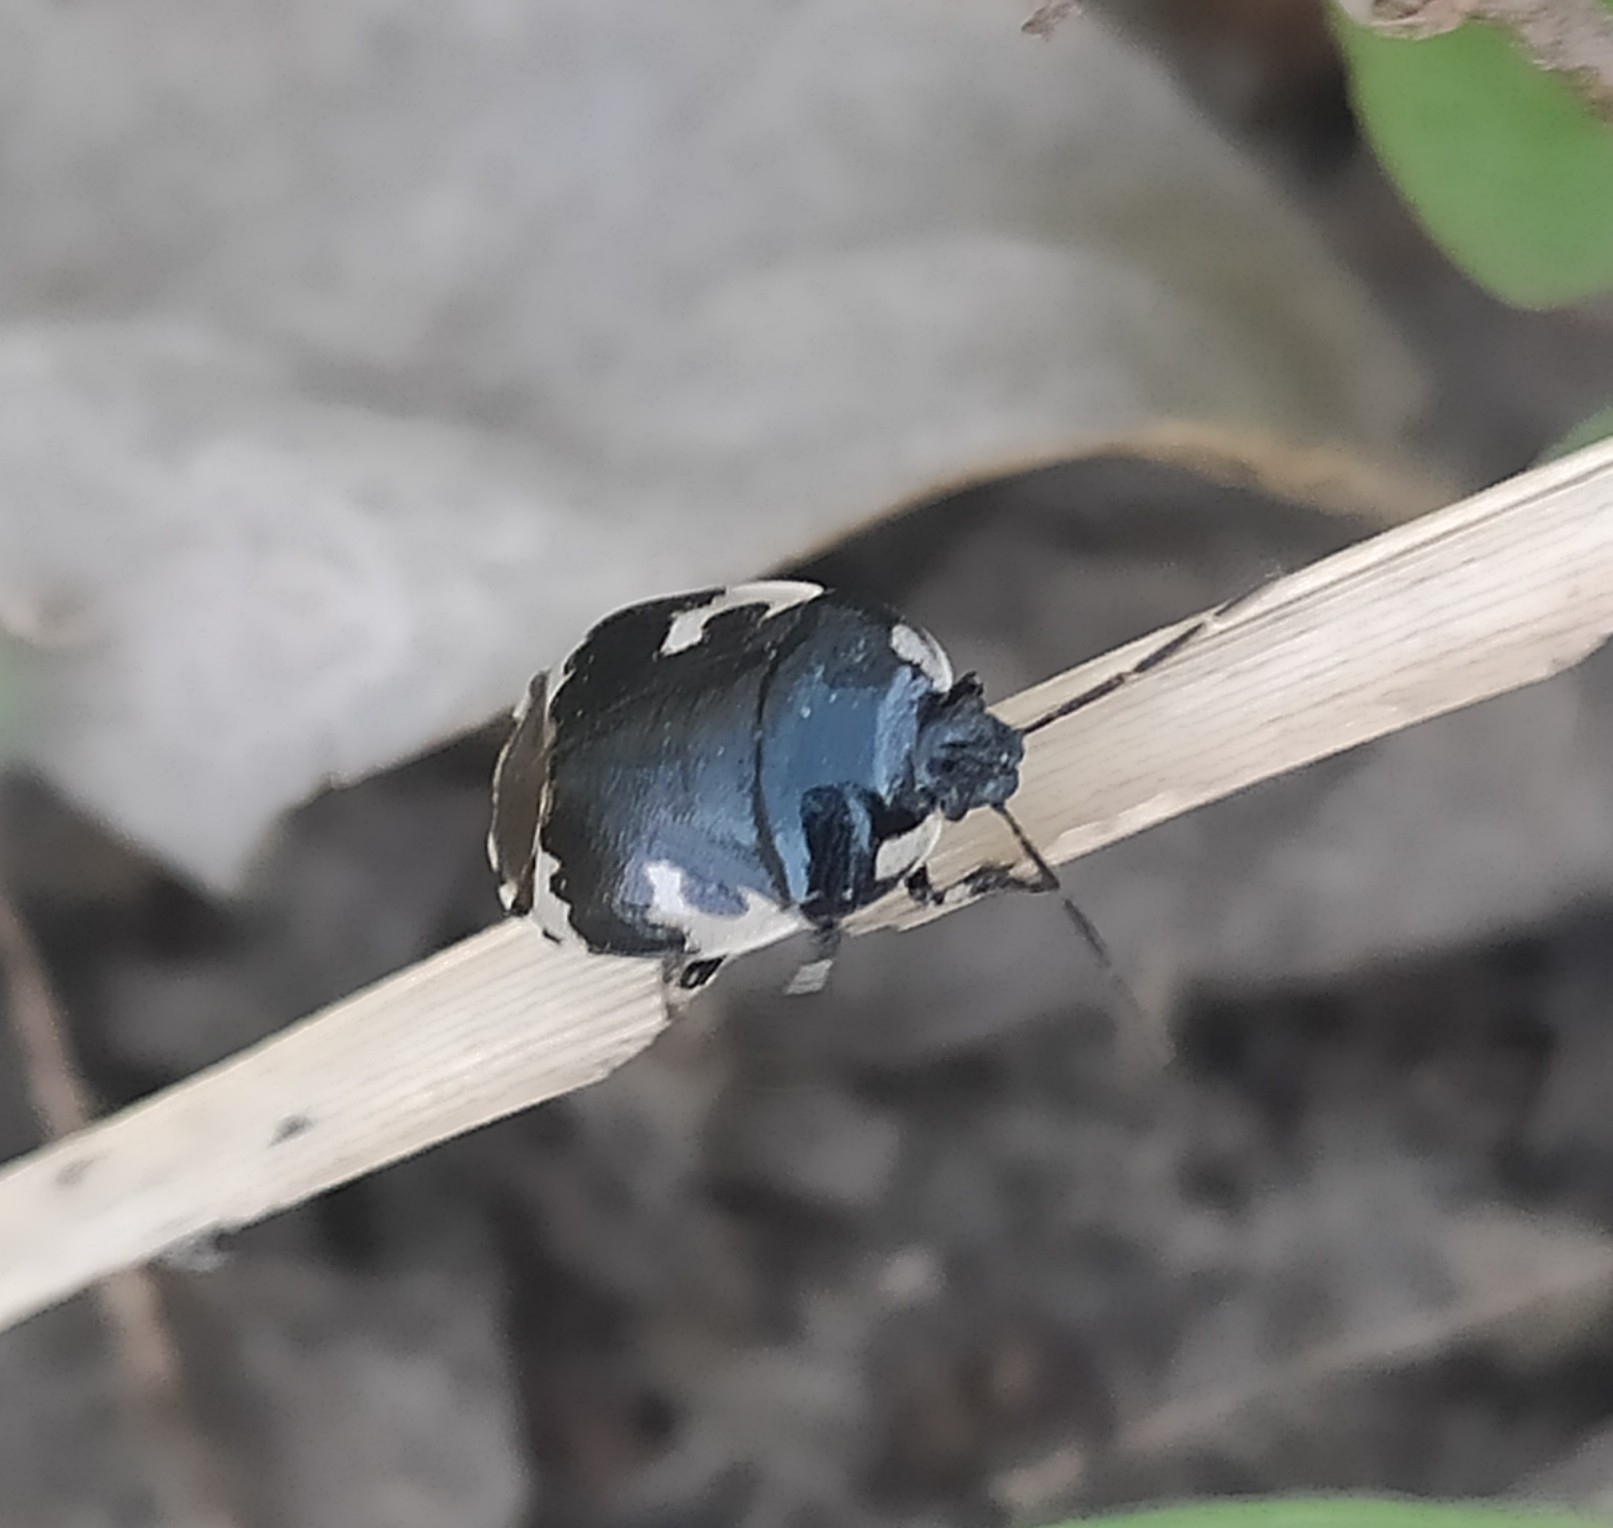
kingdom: Animalia
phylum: Arthropoda
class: Insecta
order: Hemiptera
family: Cydnidae
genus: Tritomegas
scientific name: Tritomegas bicolor
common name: Pied shieldbug
